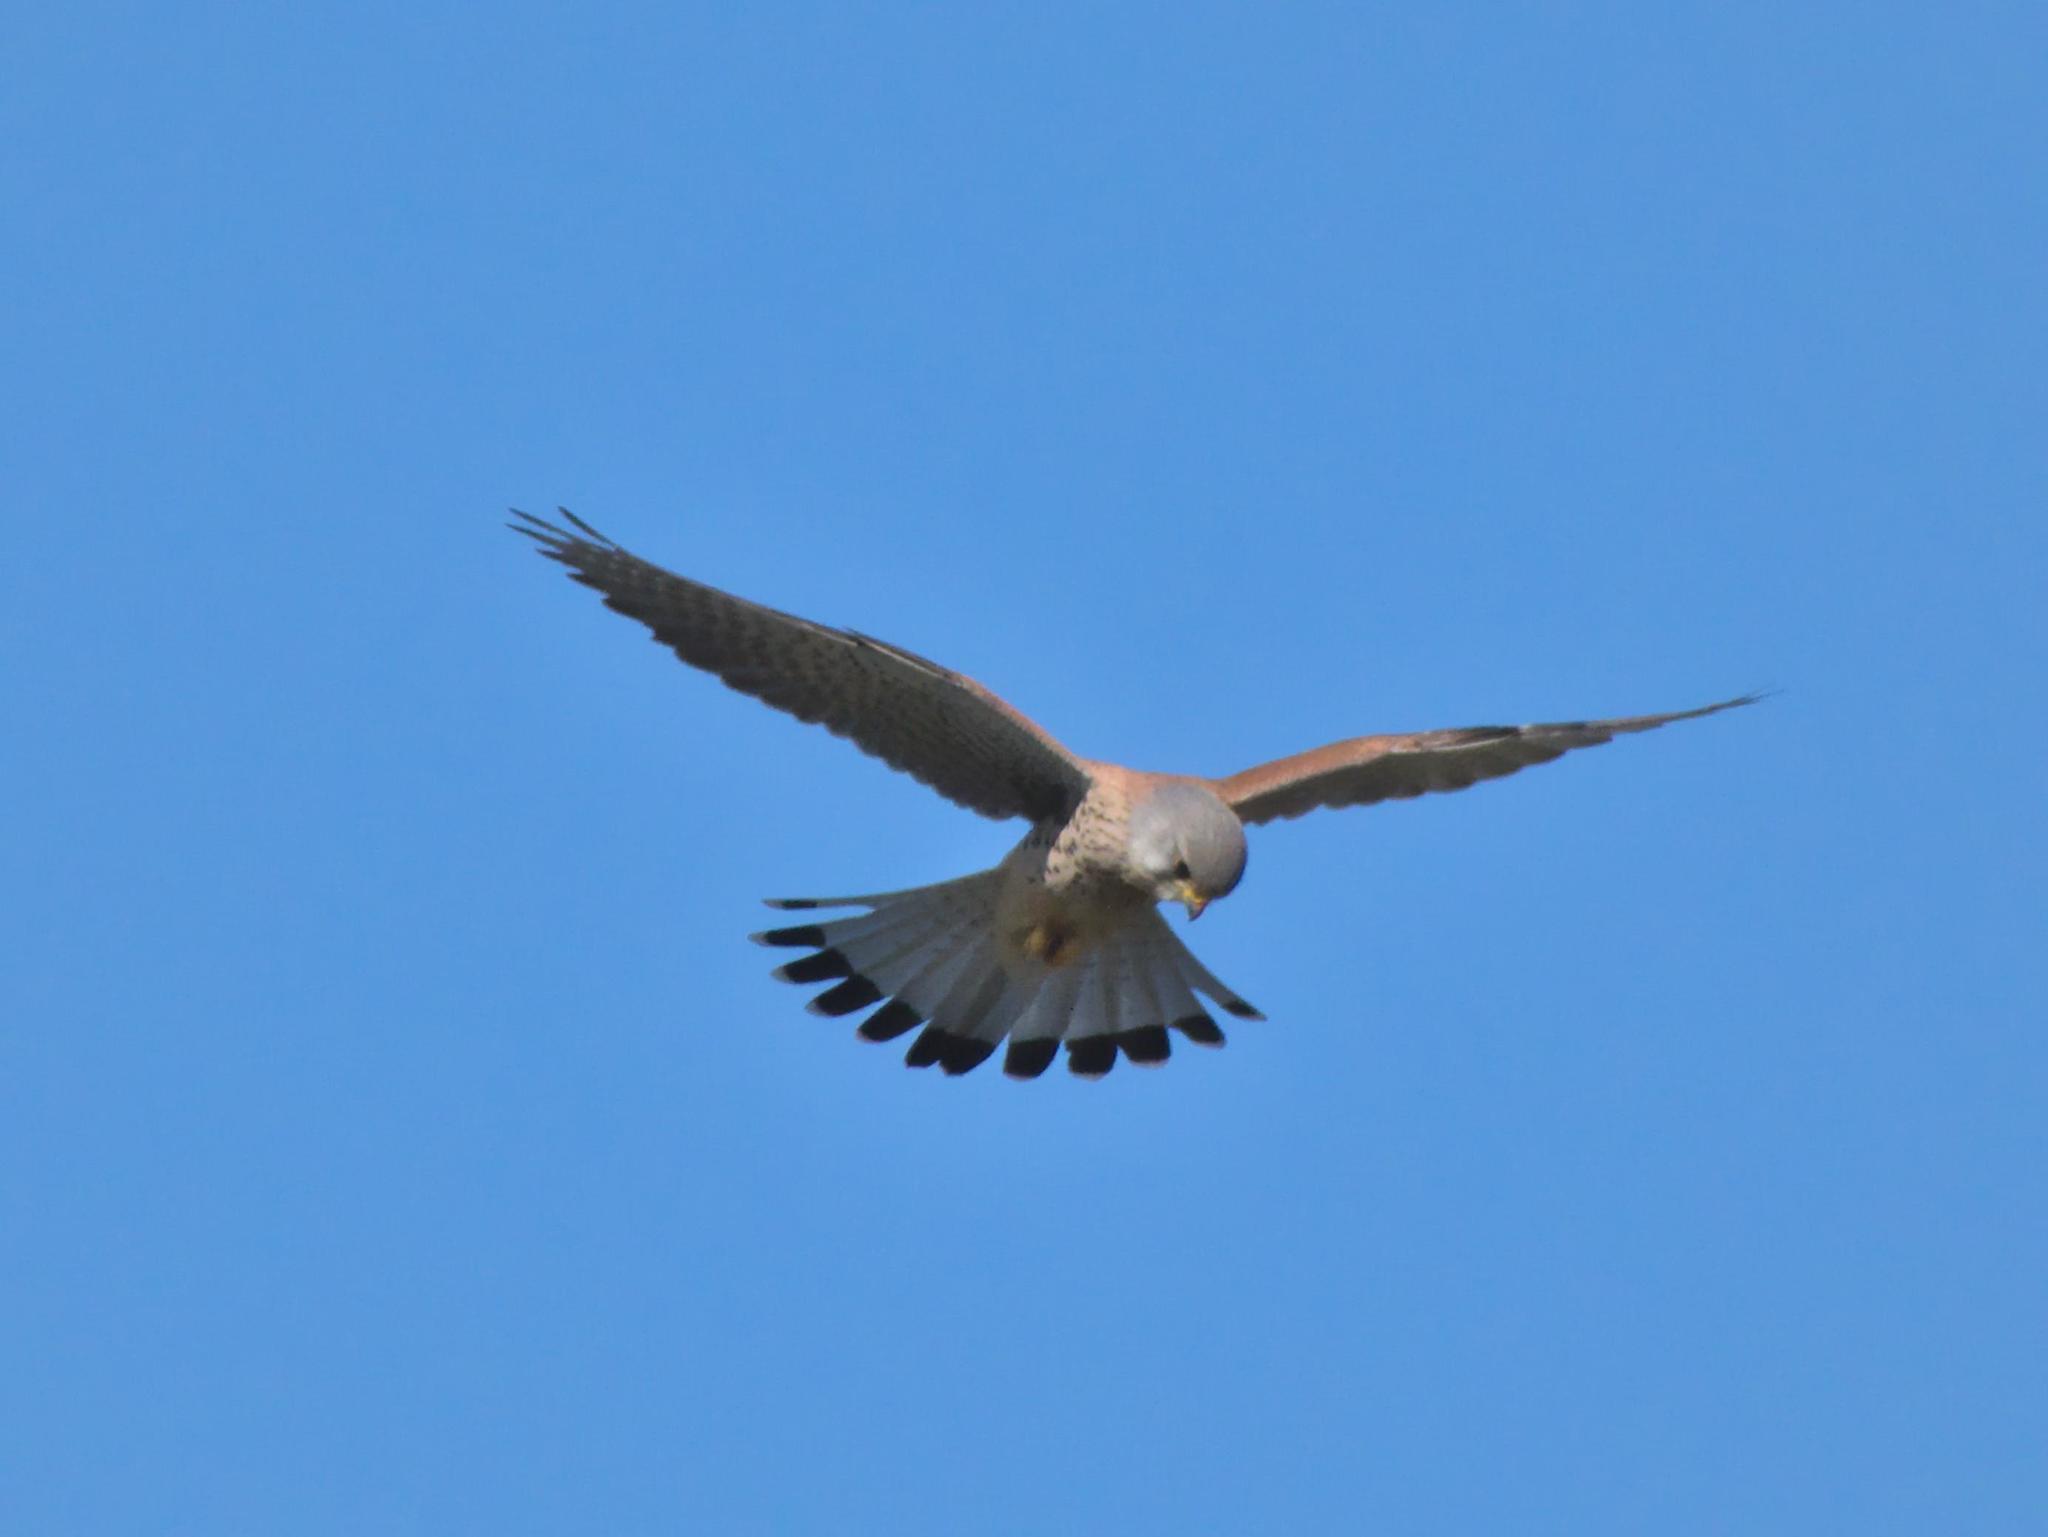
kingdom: Animalia
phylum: Chordata
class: Aves
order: Falconiformes
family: Falconidae
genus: Falco
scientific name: Falco tinnunculus
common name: Common kestrel
